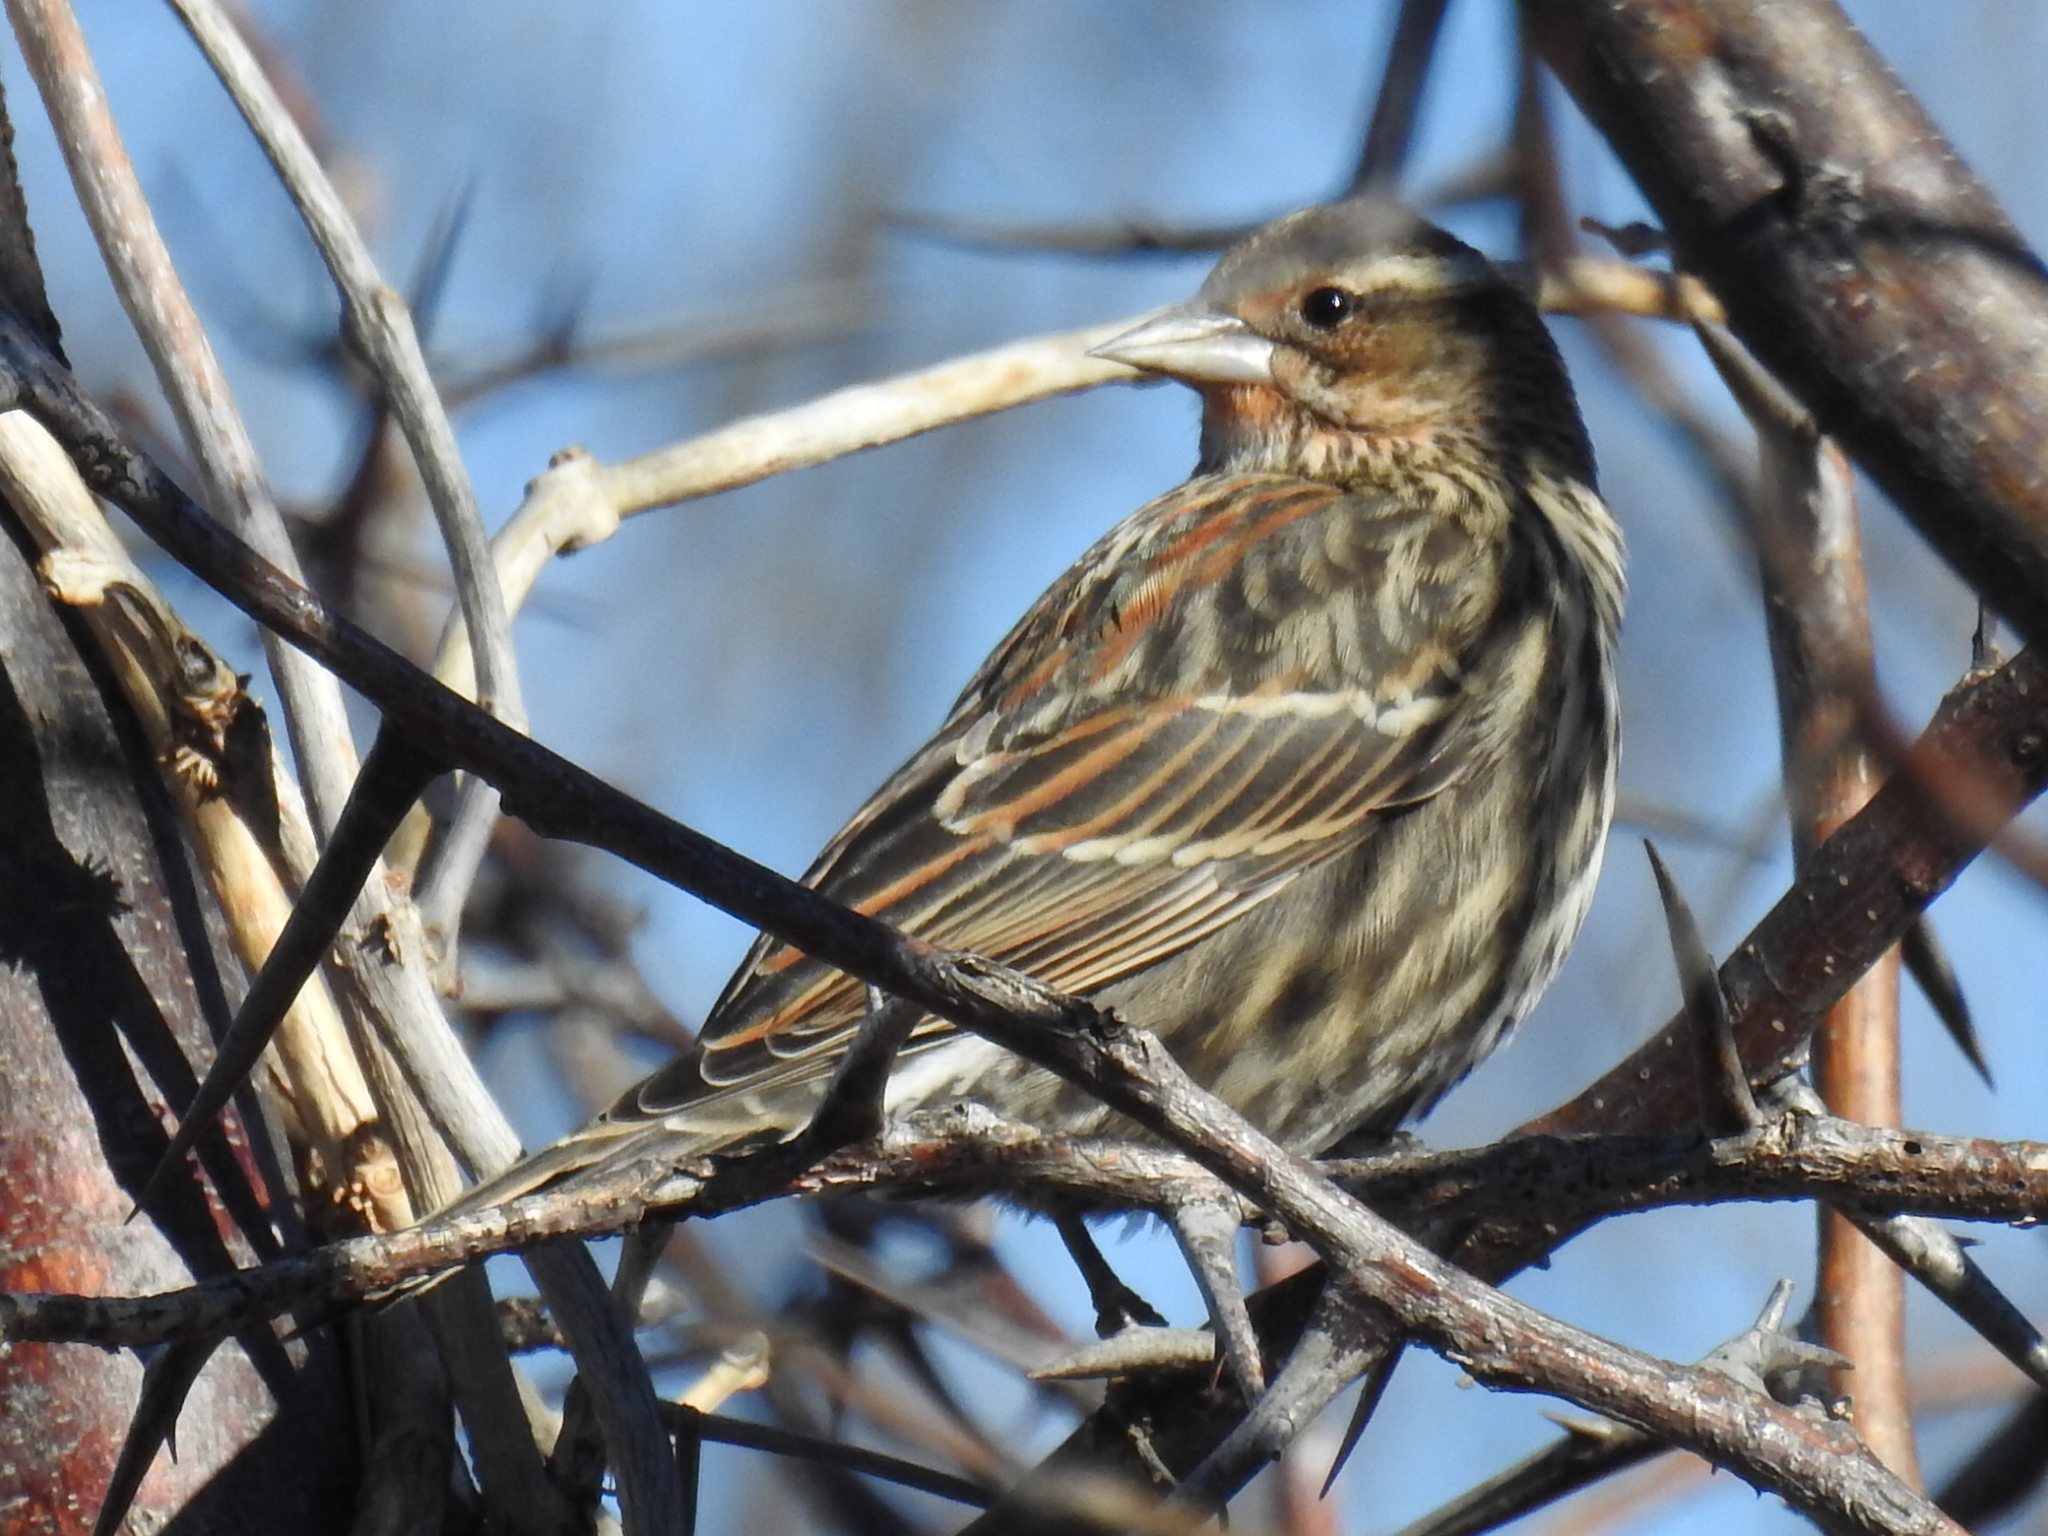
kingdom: Animalia
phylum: Chordata
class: Aves
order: Passeriformes
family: Icteridae
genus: Agelaius
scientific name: Agelaius phoeniceus
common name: Red-winged blackbird
